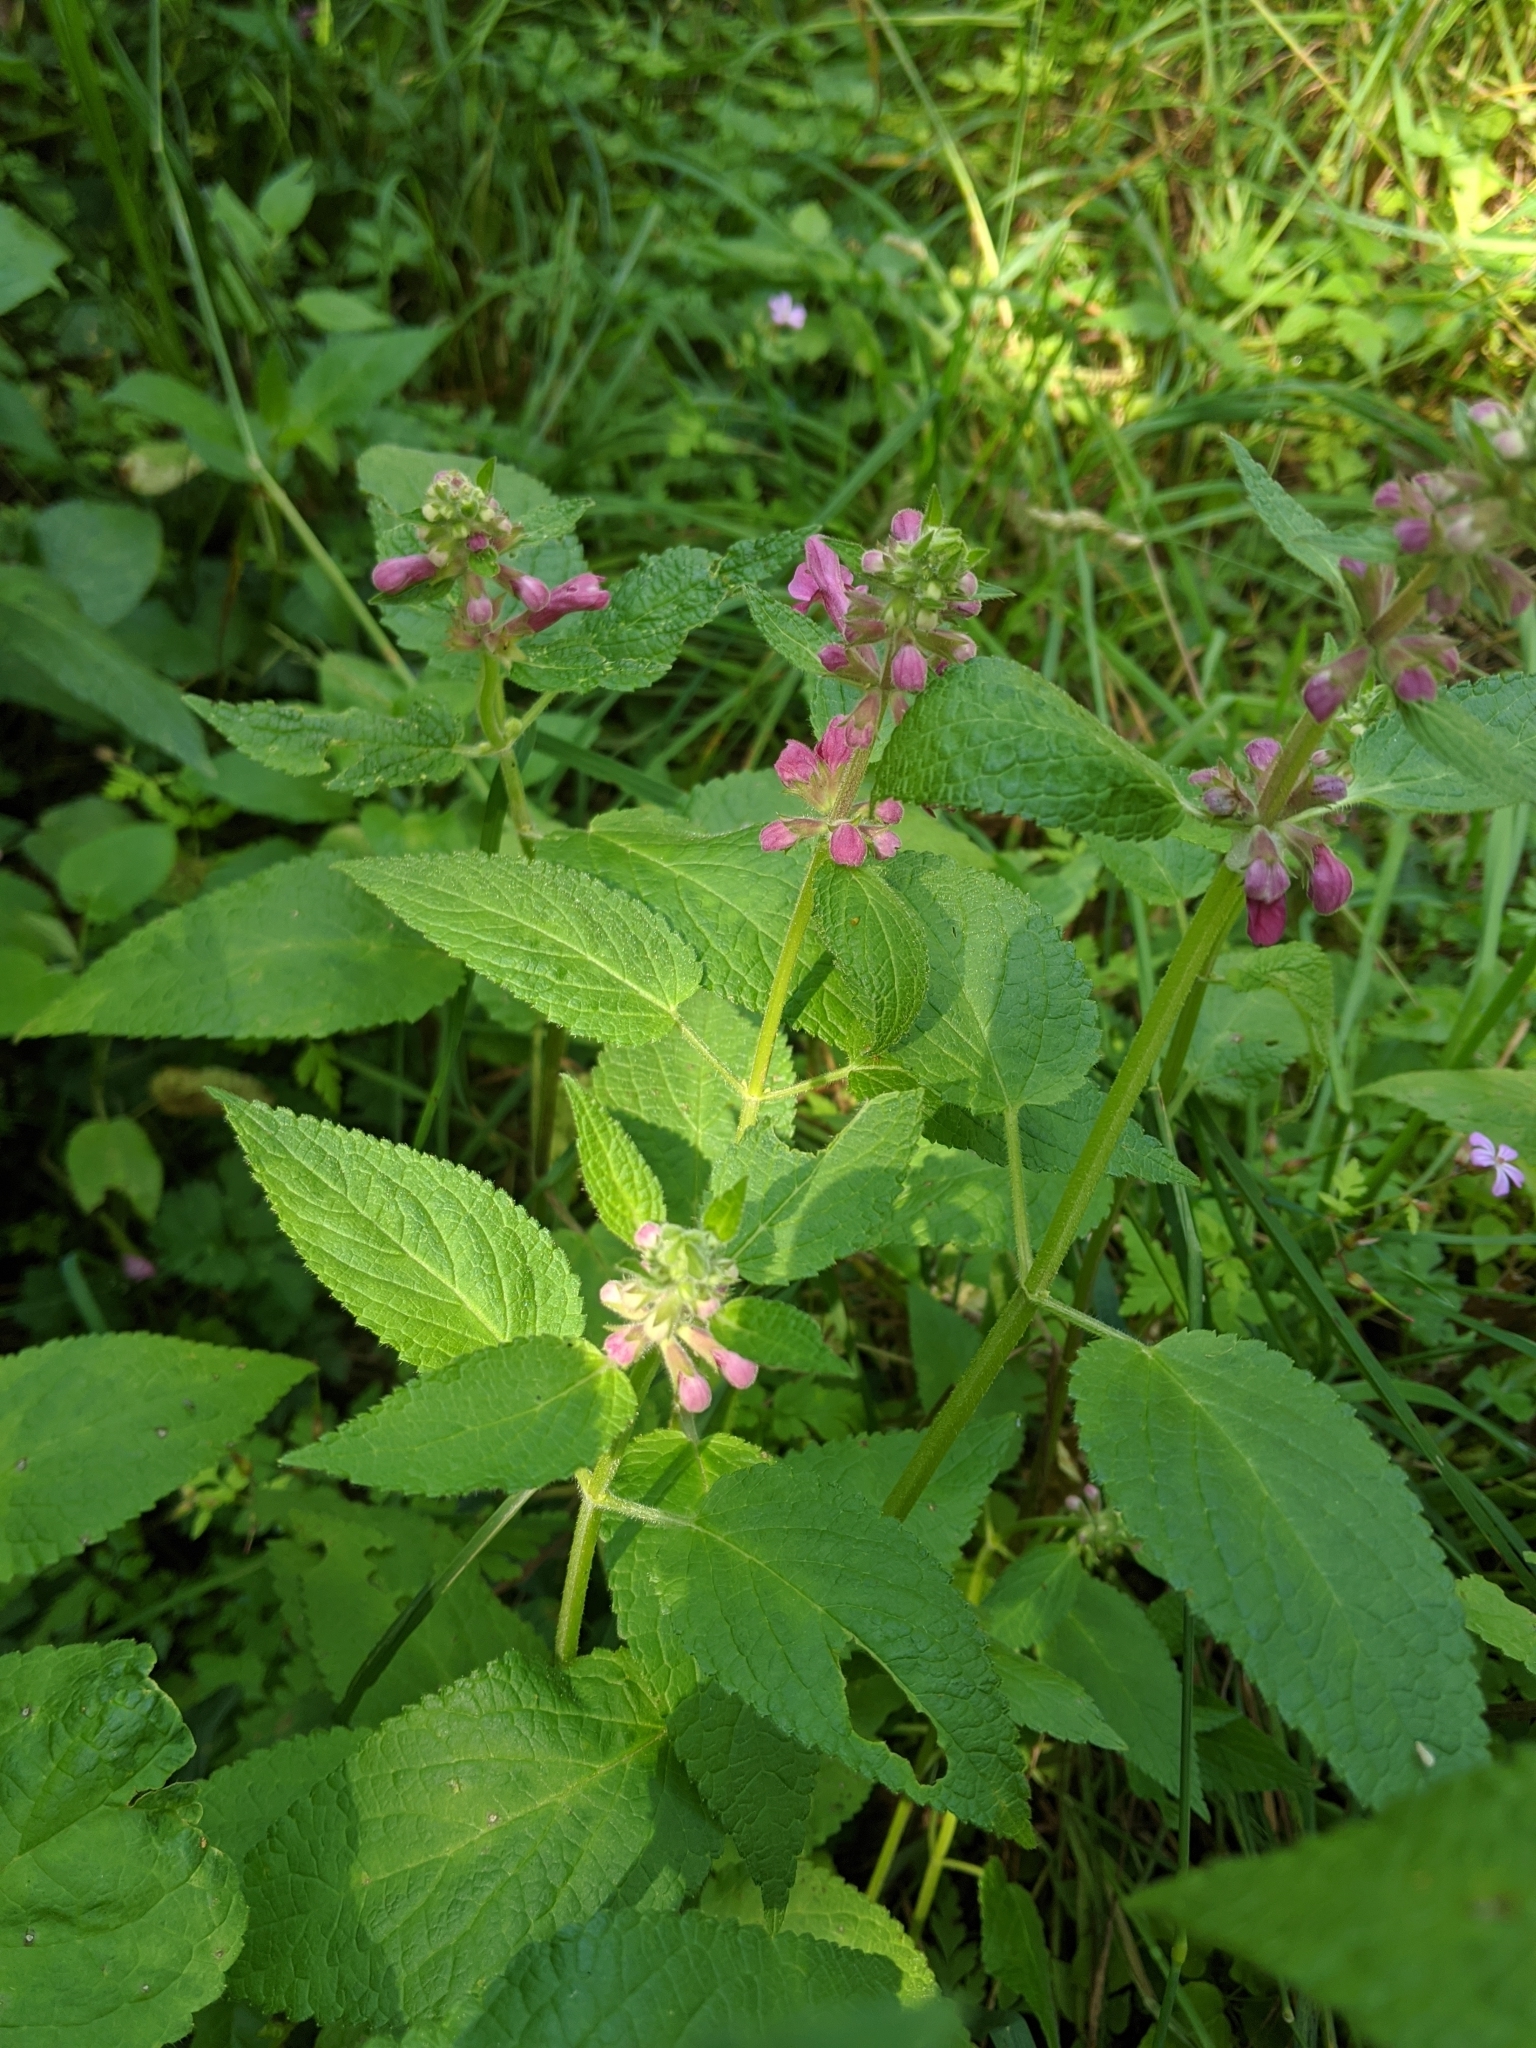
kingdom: Plantae
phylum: Tracheophyta
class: Magnoliopsida
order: Lamiales
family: Lamiaceae
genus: Stachys
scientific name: Stachys chamissonis
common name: Coastal hedge-nettle
